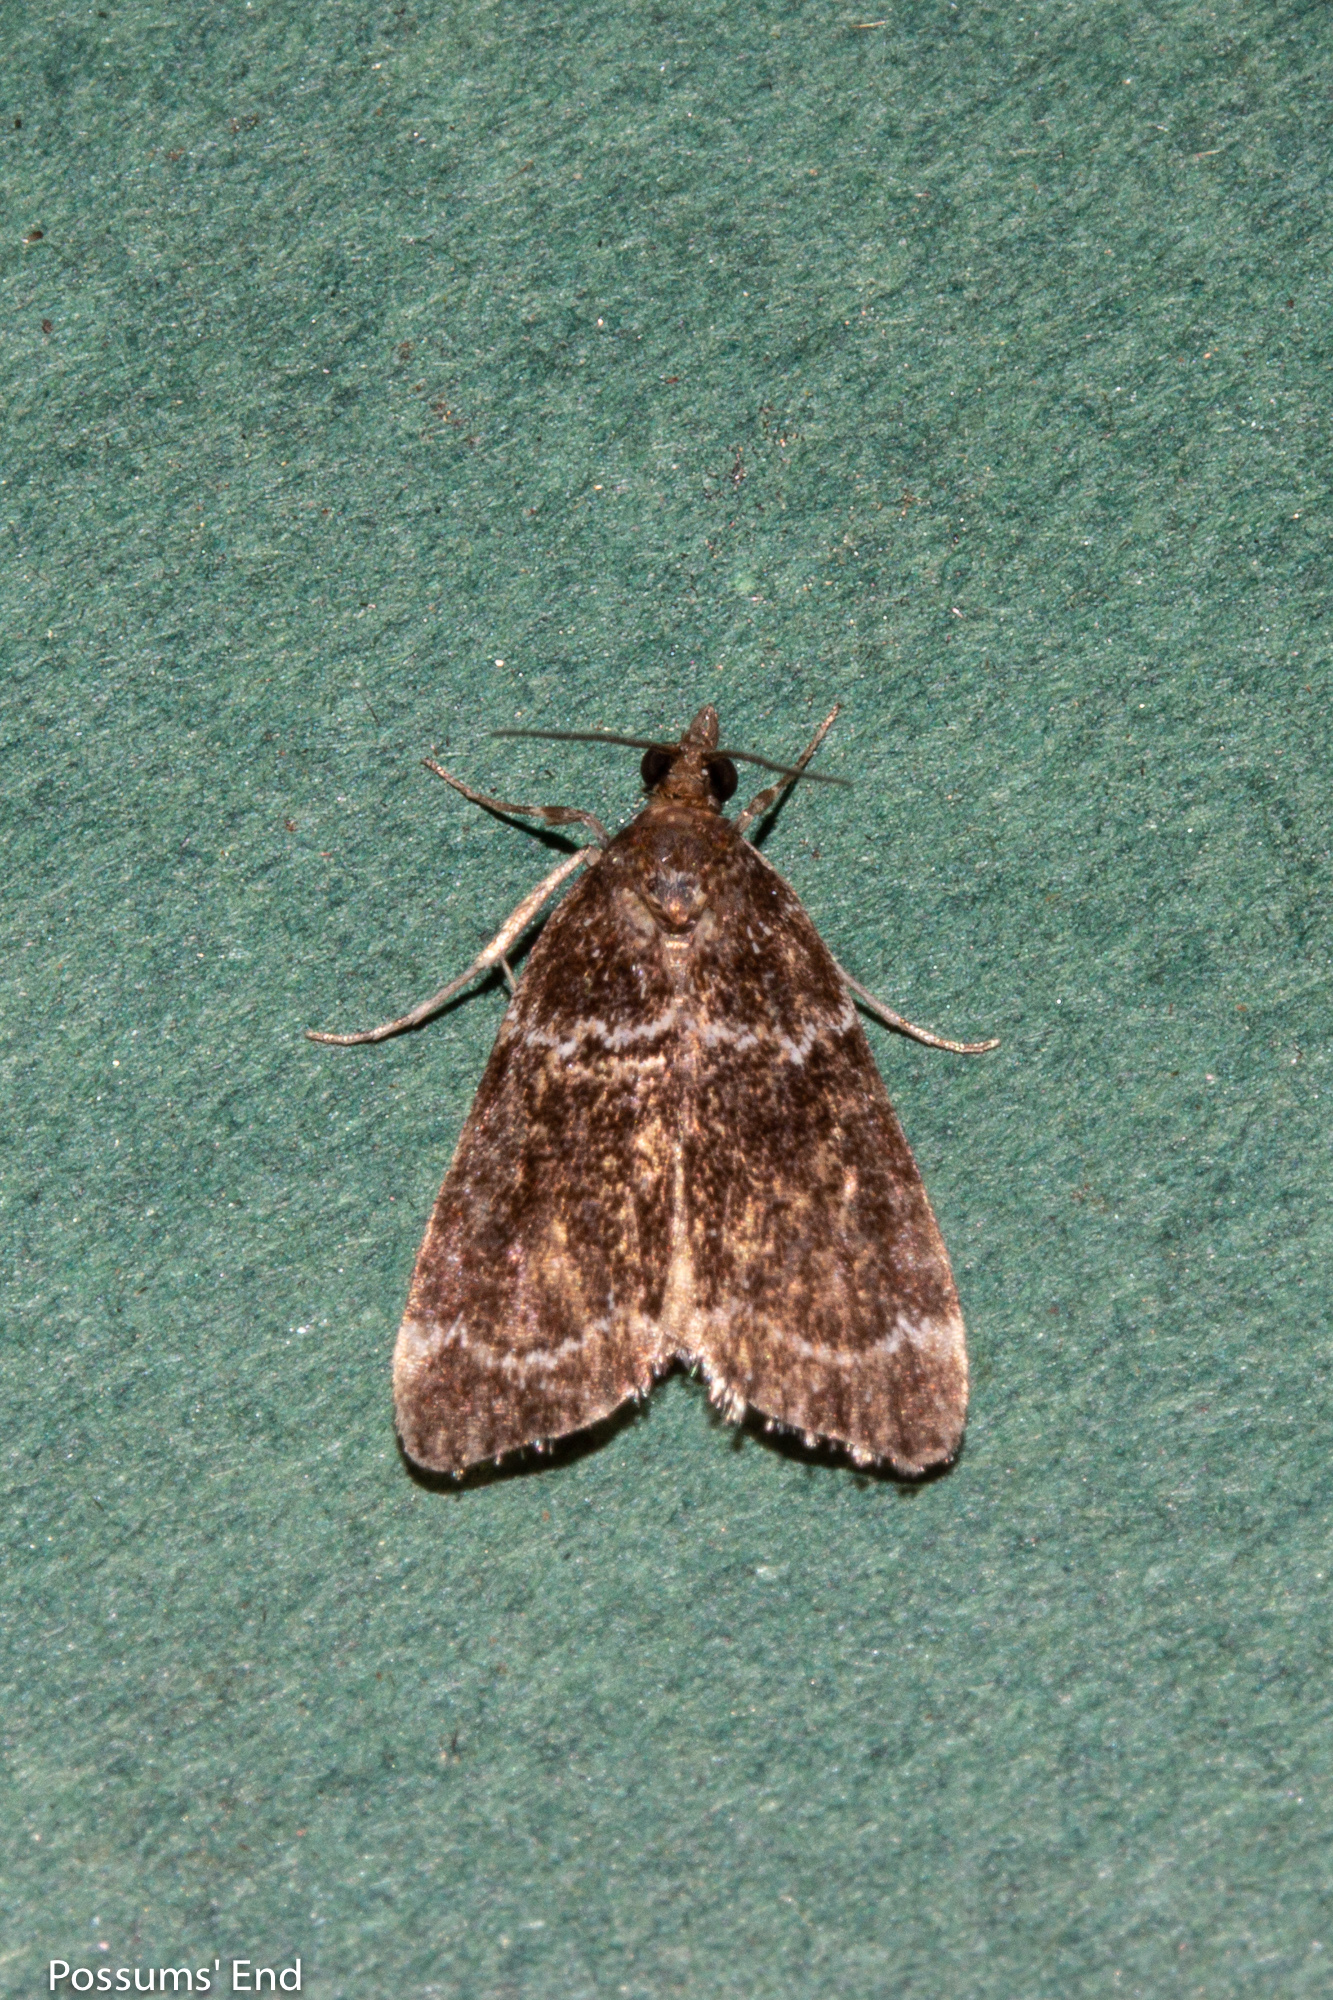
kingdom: Animalia
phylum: Arthropoda
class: Insecta
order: Lepidoptera
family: Crambidae
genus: Eudonia
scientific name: Eudonia leucogramma
